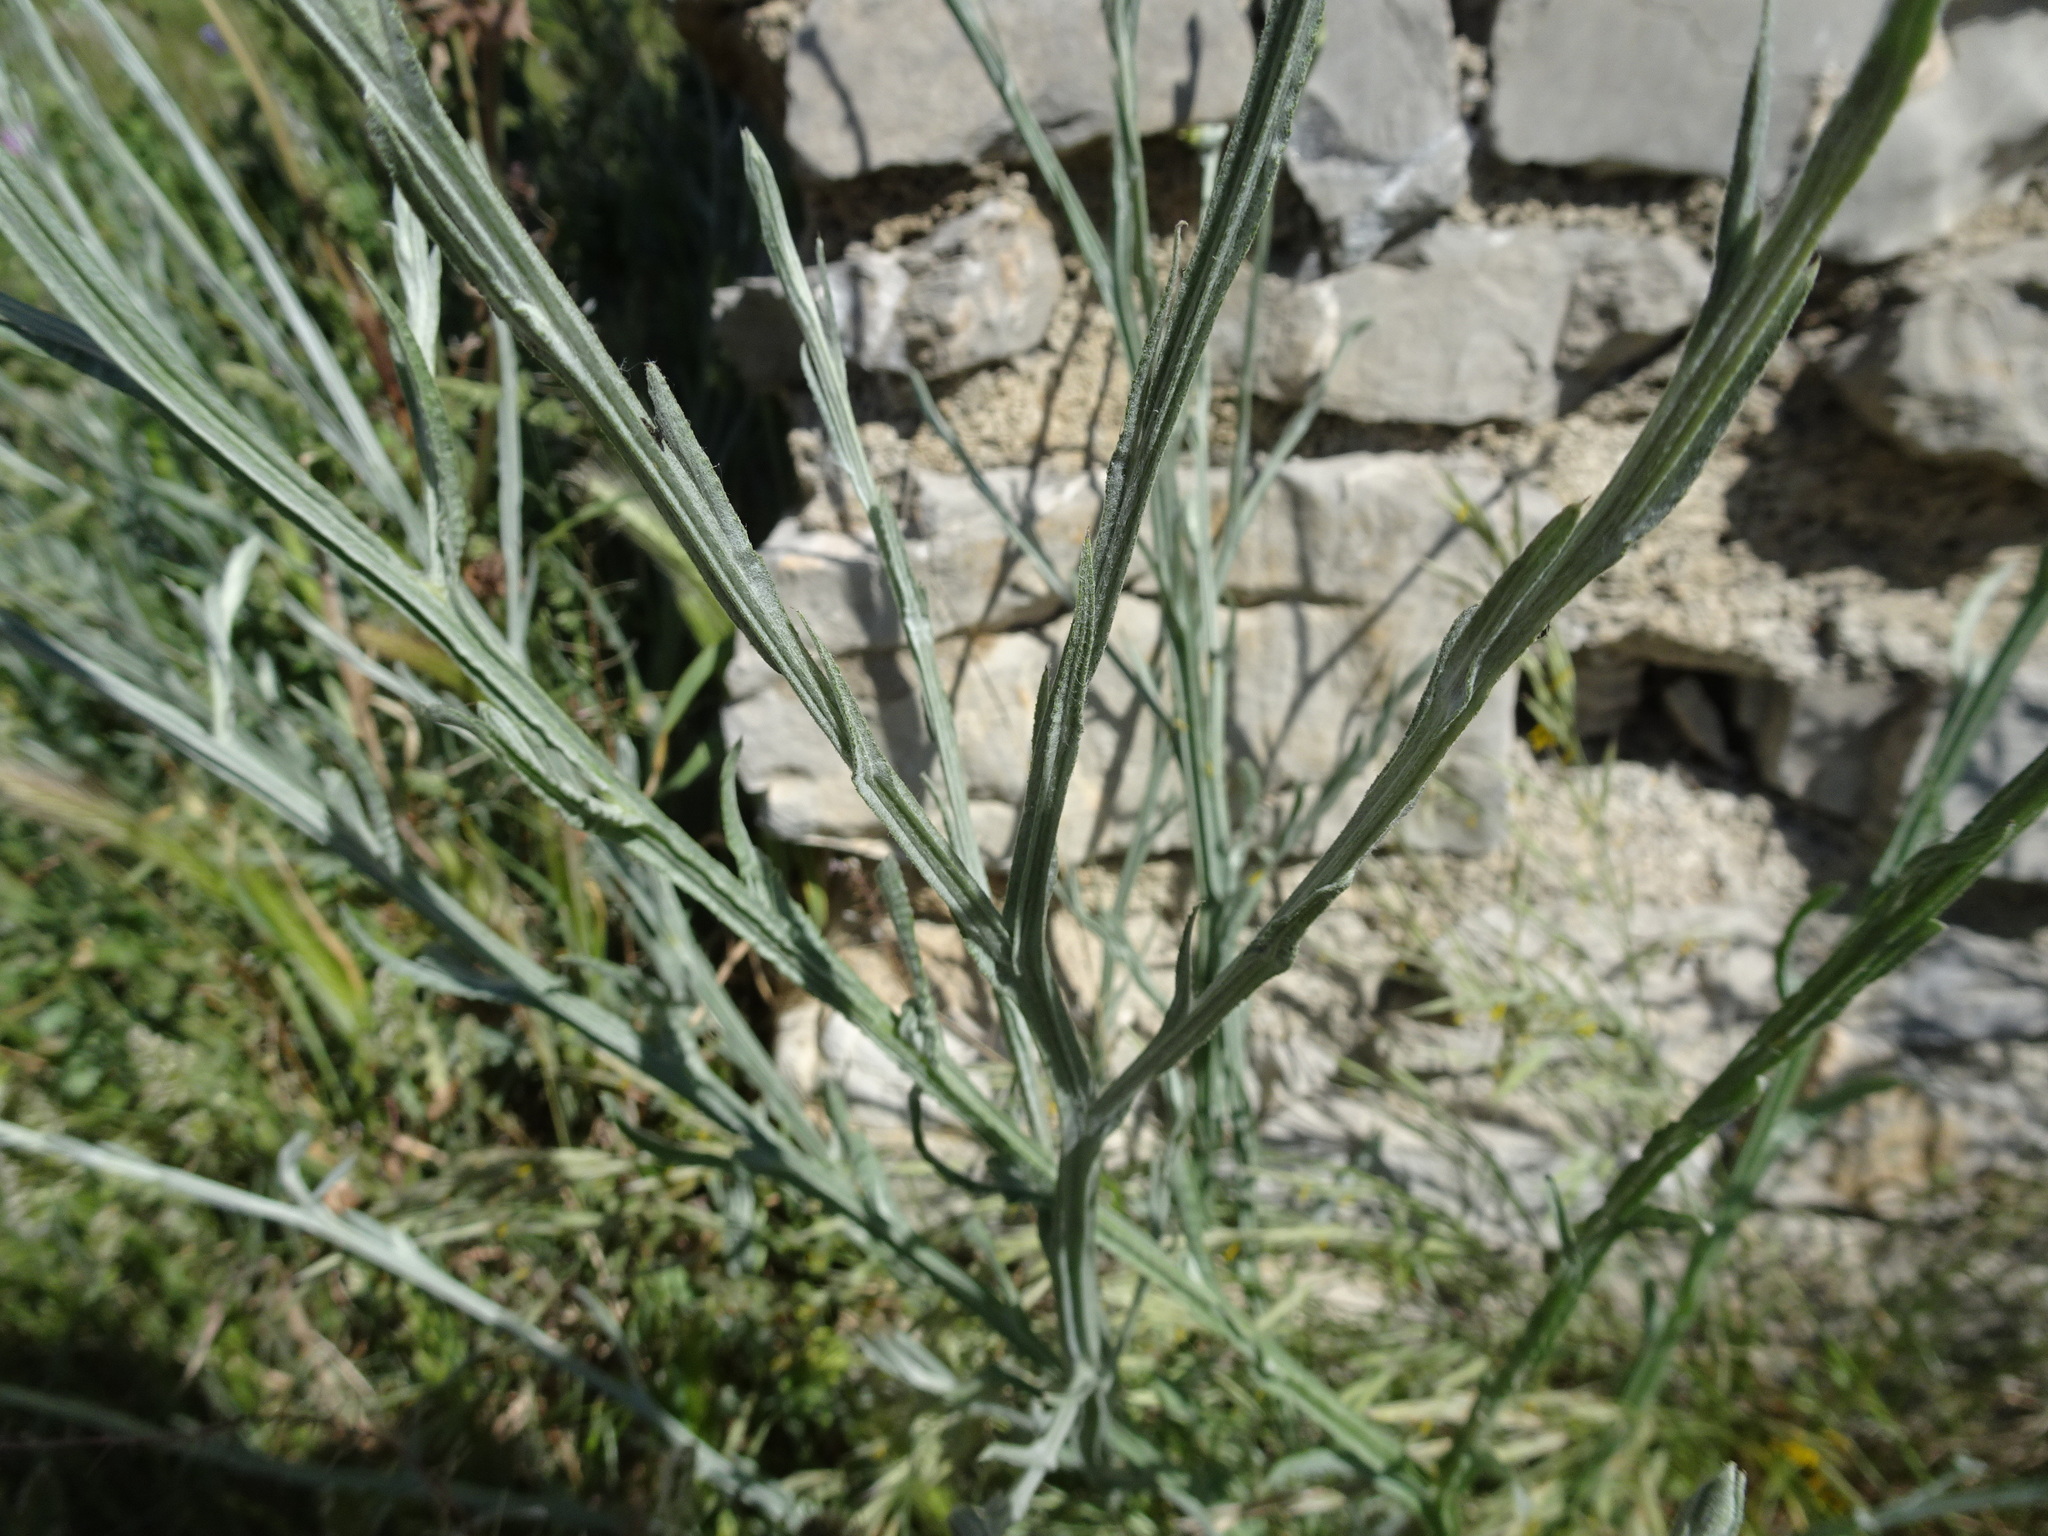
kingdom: Plantae
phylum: Tracheophyta
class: Magnoliopsida
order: Asterales
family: Asteraceae
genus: Centaurea
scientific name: Centaurea solstitialis
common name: Yellow star-thistle
